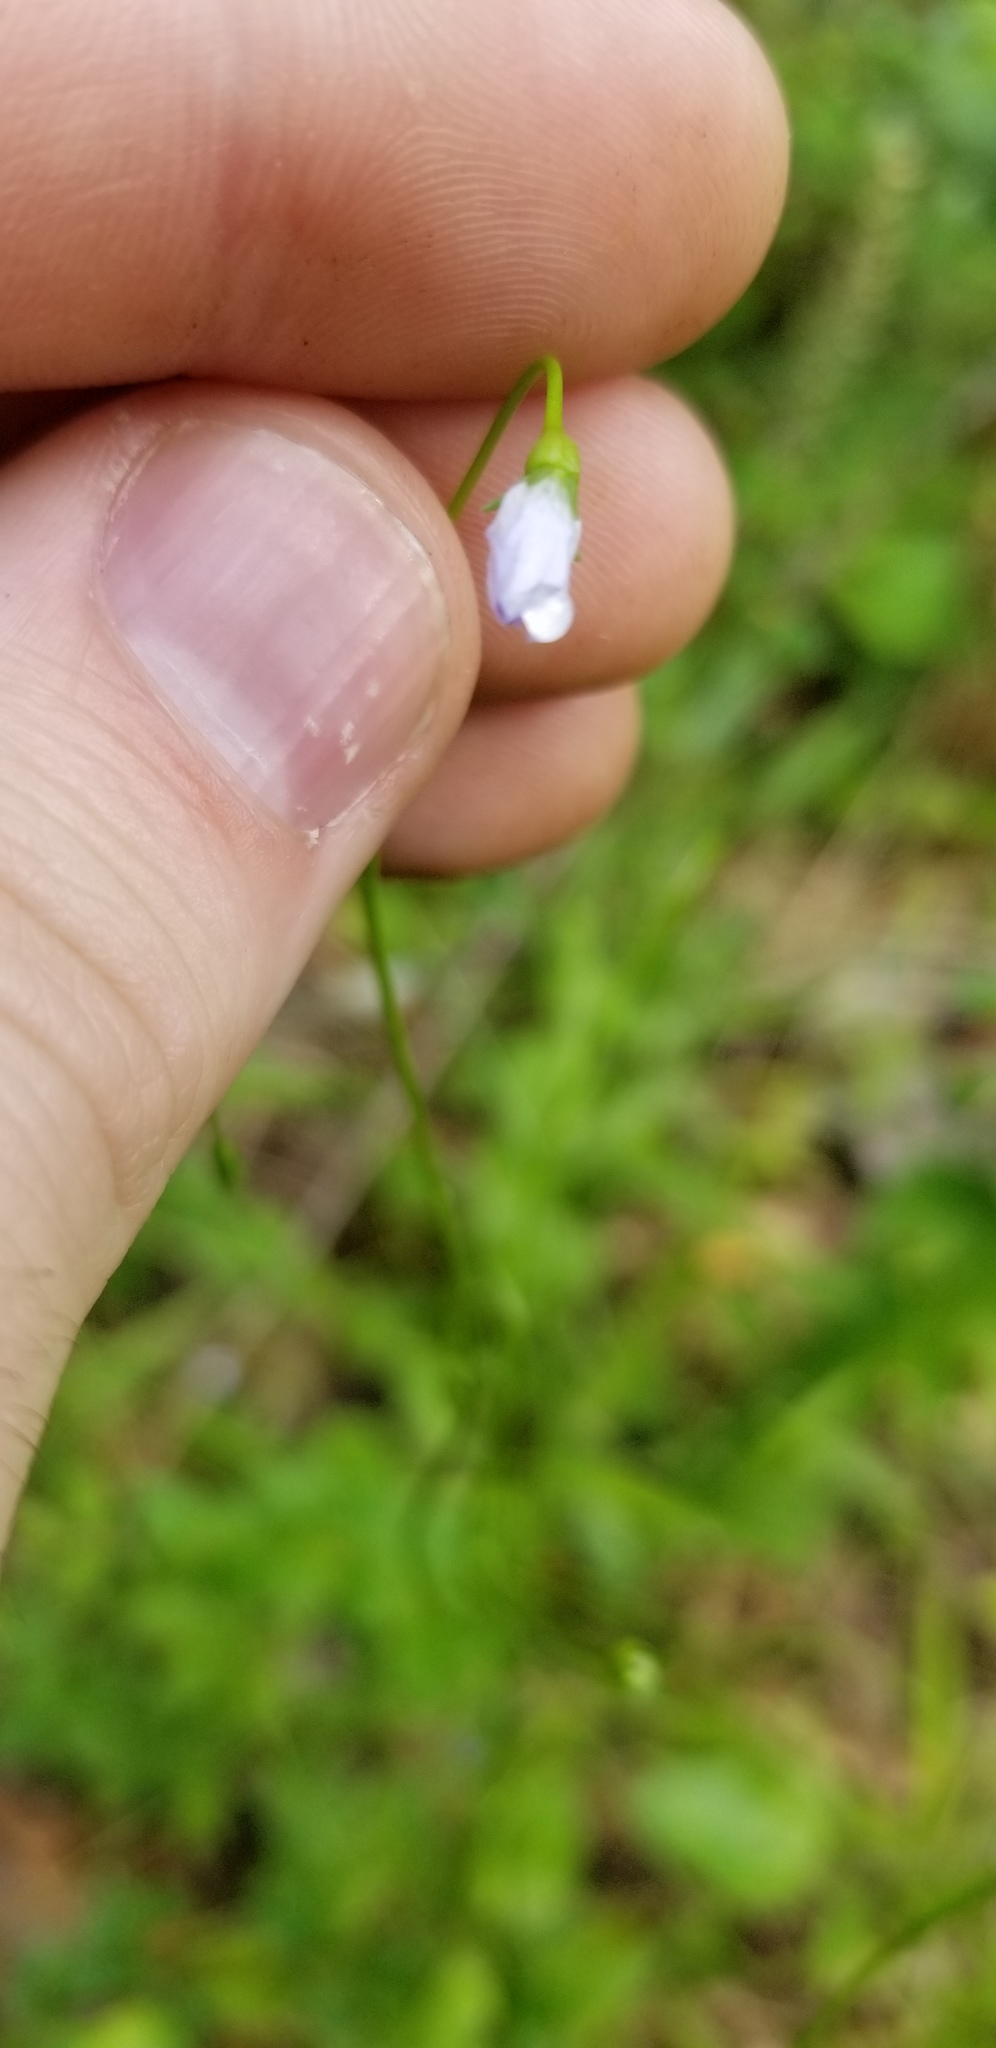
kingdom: Plantae
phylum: Tracheophyta
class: Magnoliopsida
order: Asterales
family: Campanulaceae
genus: Wahlenbergia
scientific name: Wahlenbergia marginata
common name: Southern rockbell
